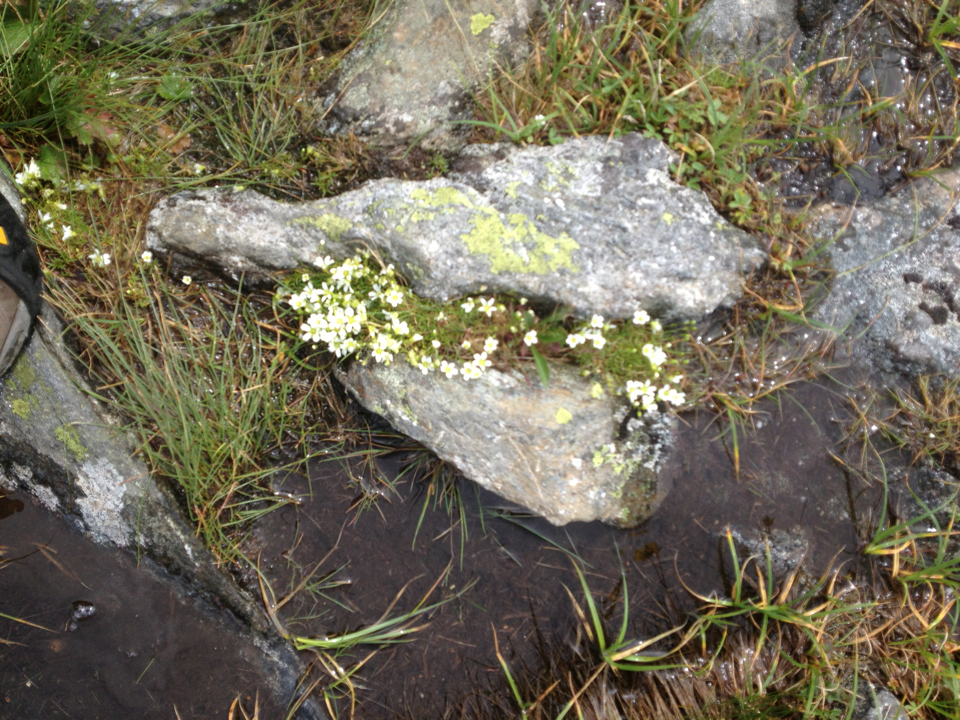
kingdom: Plantae
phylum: Tracheophyta
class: Magnoliopsida
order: Caryophyllales
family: Caryophyllaceae
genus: Geocarpon
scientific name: Geocarpon groenlandicum
